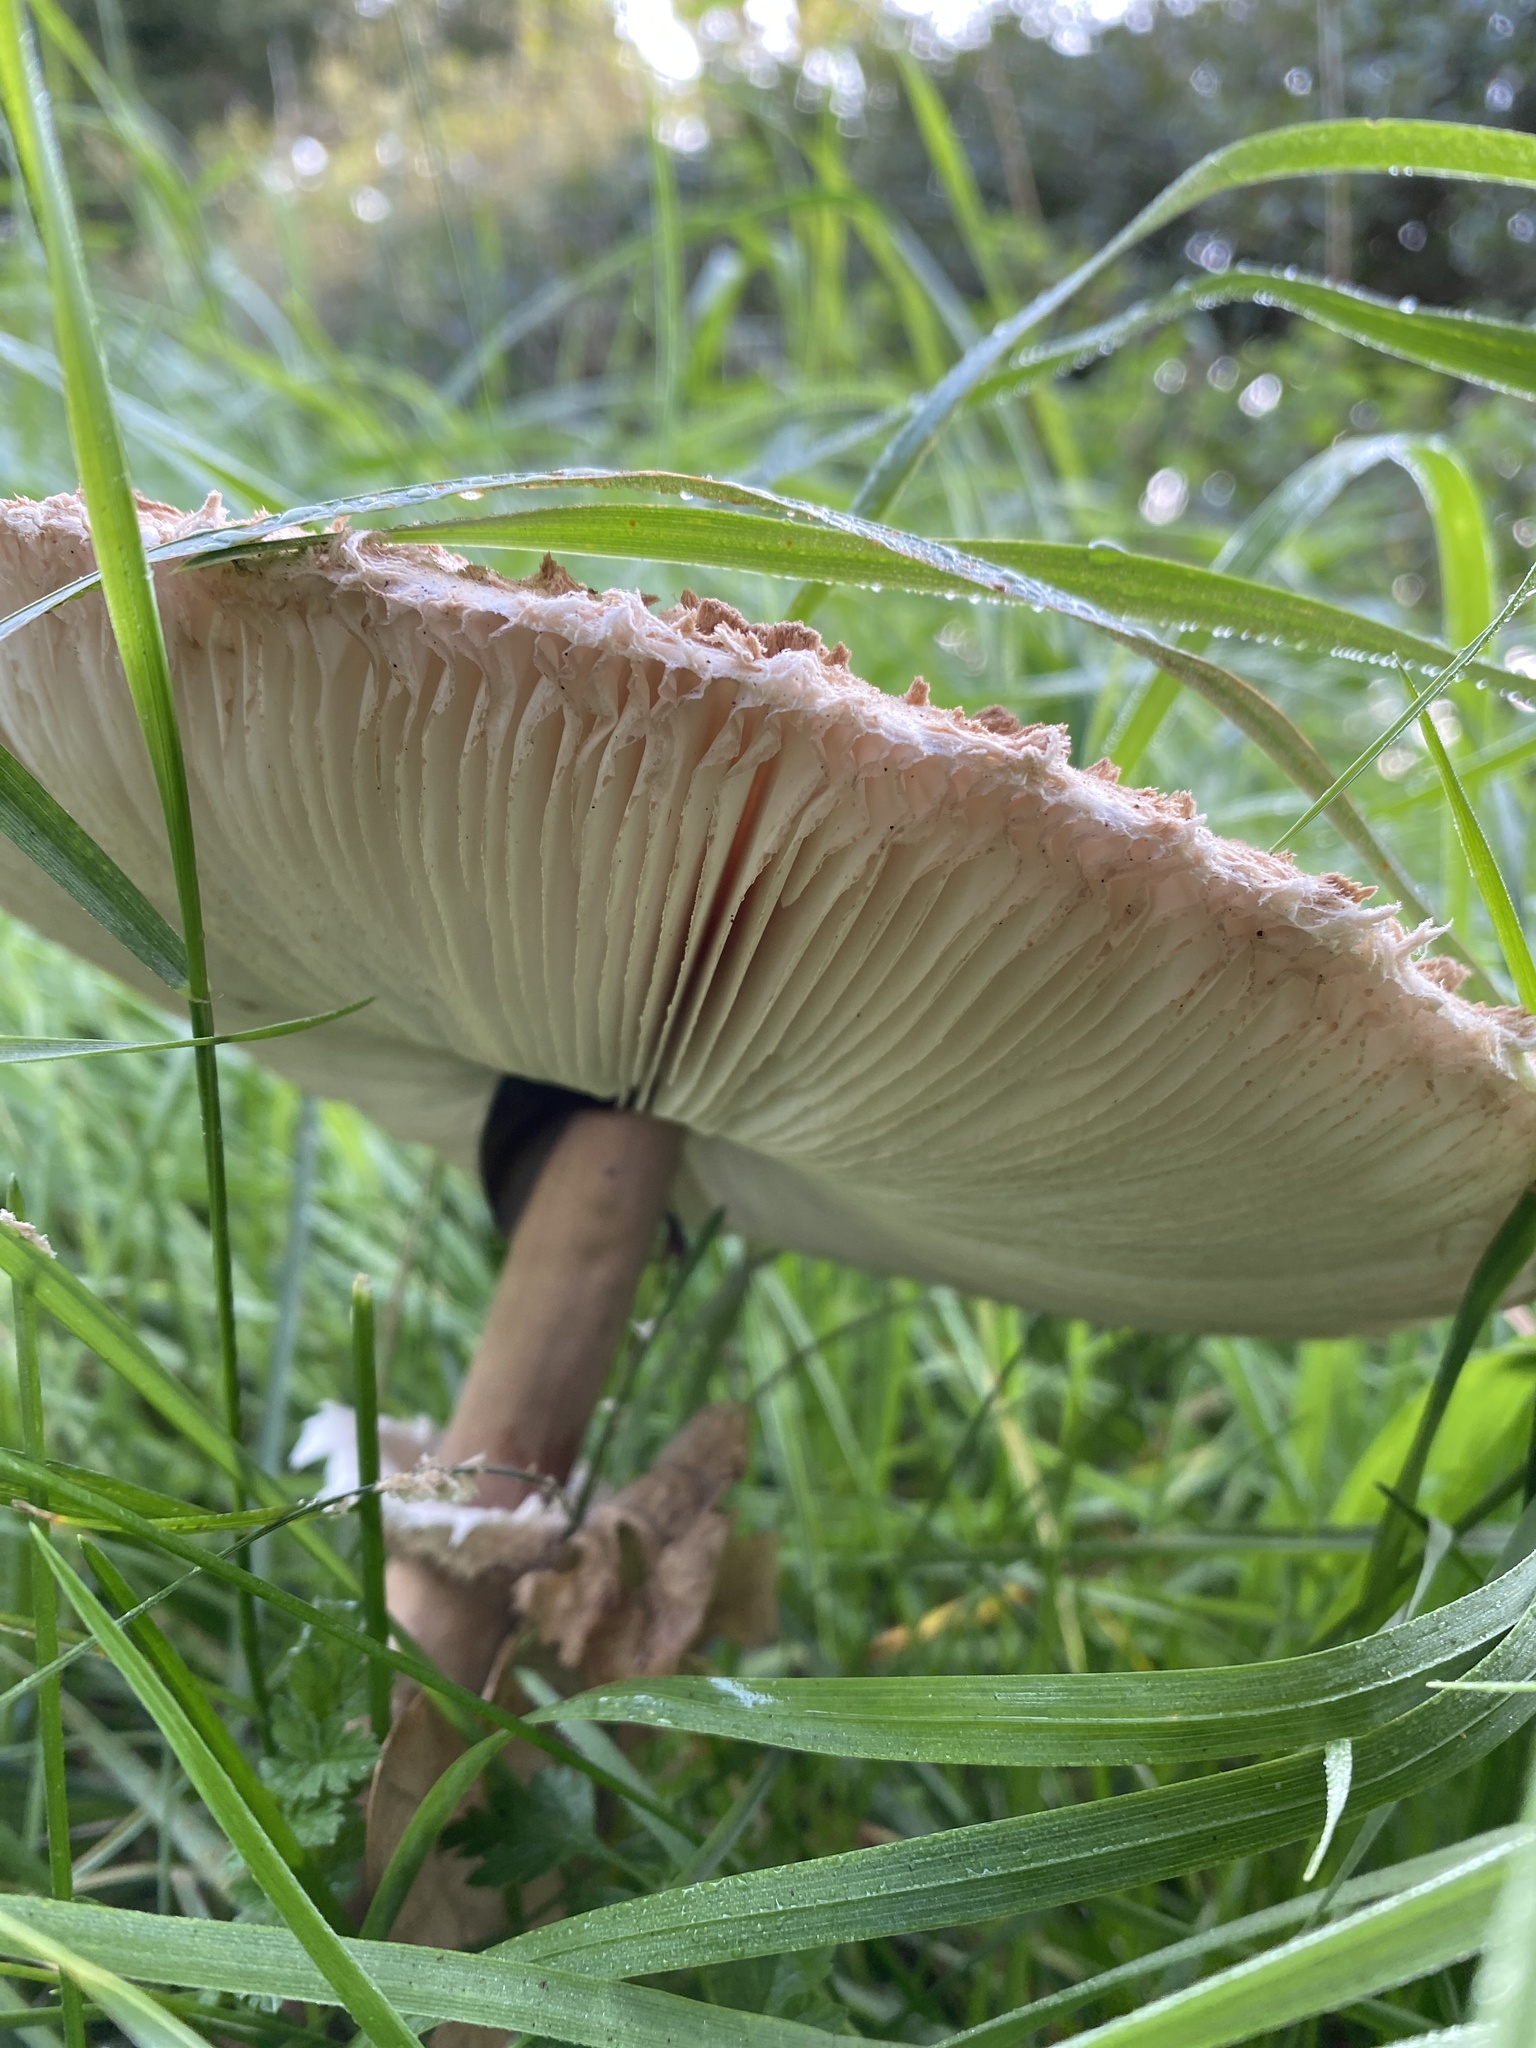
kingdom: Fungi
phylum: Basidiomycota
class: Agaricomycetes
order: Agaricales
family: Agaricaceae
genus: Macrolepiota
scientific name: Macrolepiota procera
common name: Parasol
